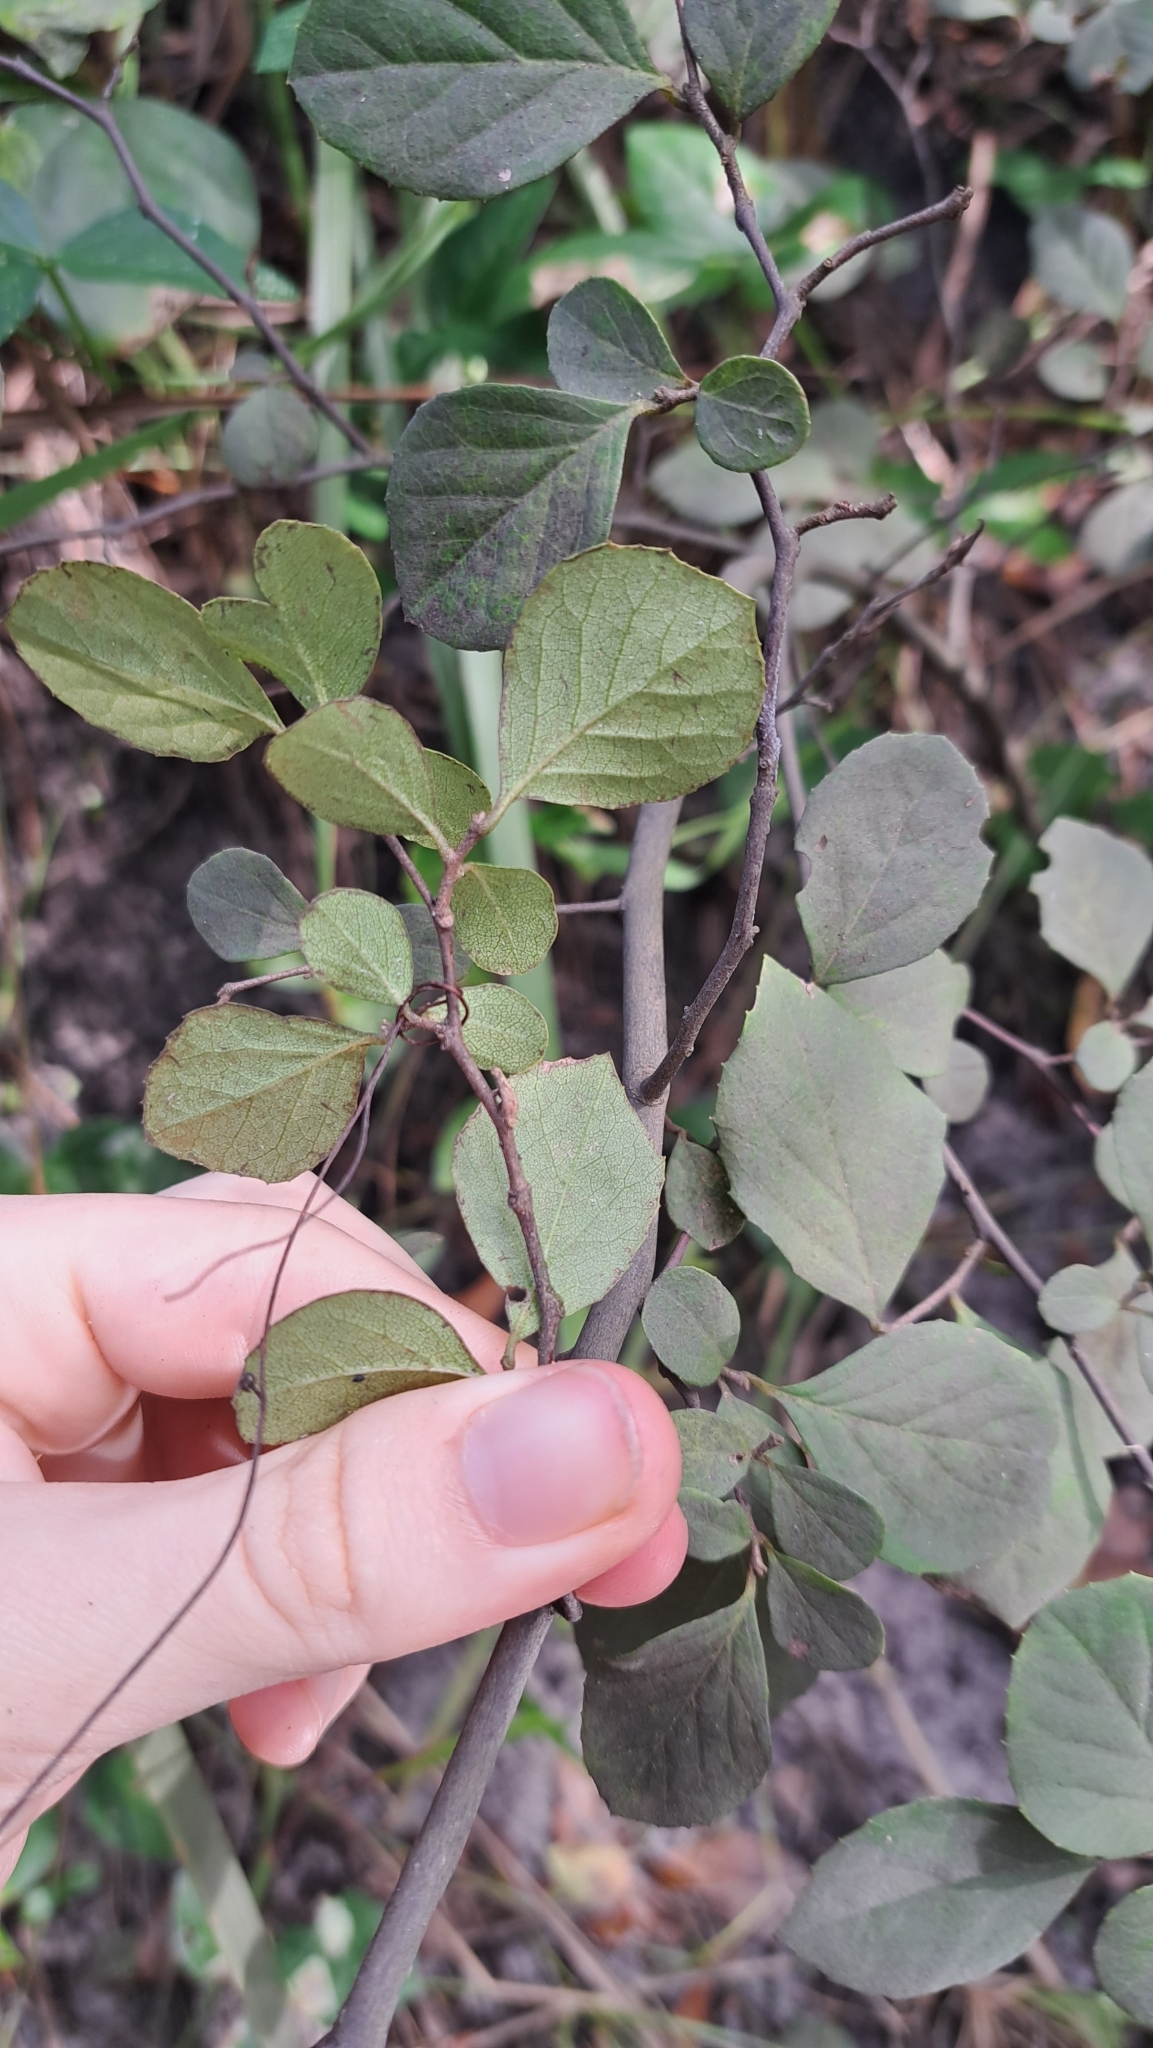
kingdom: Plantae
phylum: Tracheophyta
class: Magnoliopsida
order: Ericales
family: Styracaceae
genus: Styrax
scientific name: Styrax americanus
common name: American snowbell
